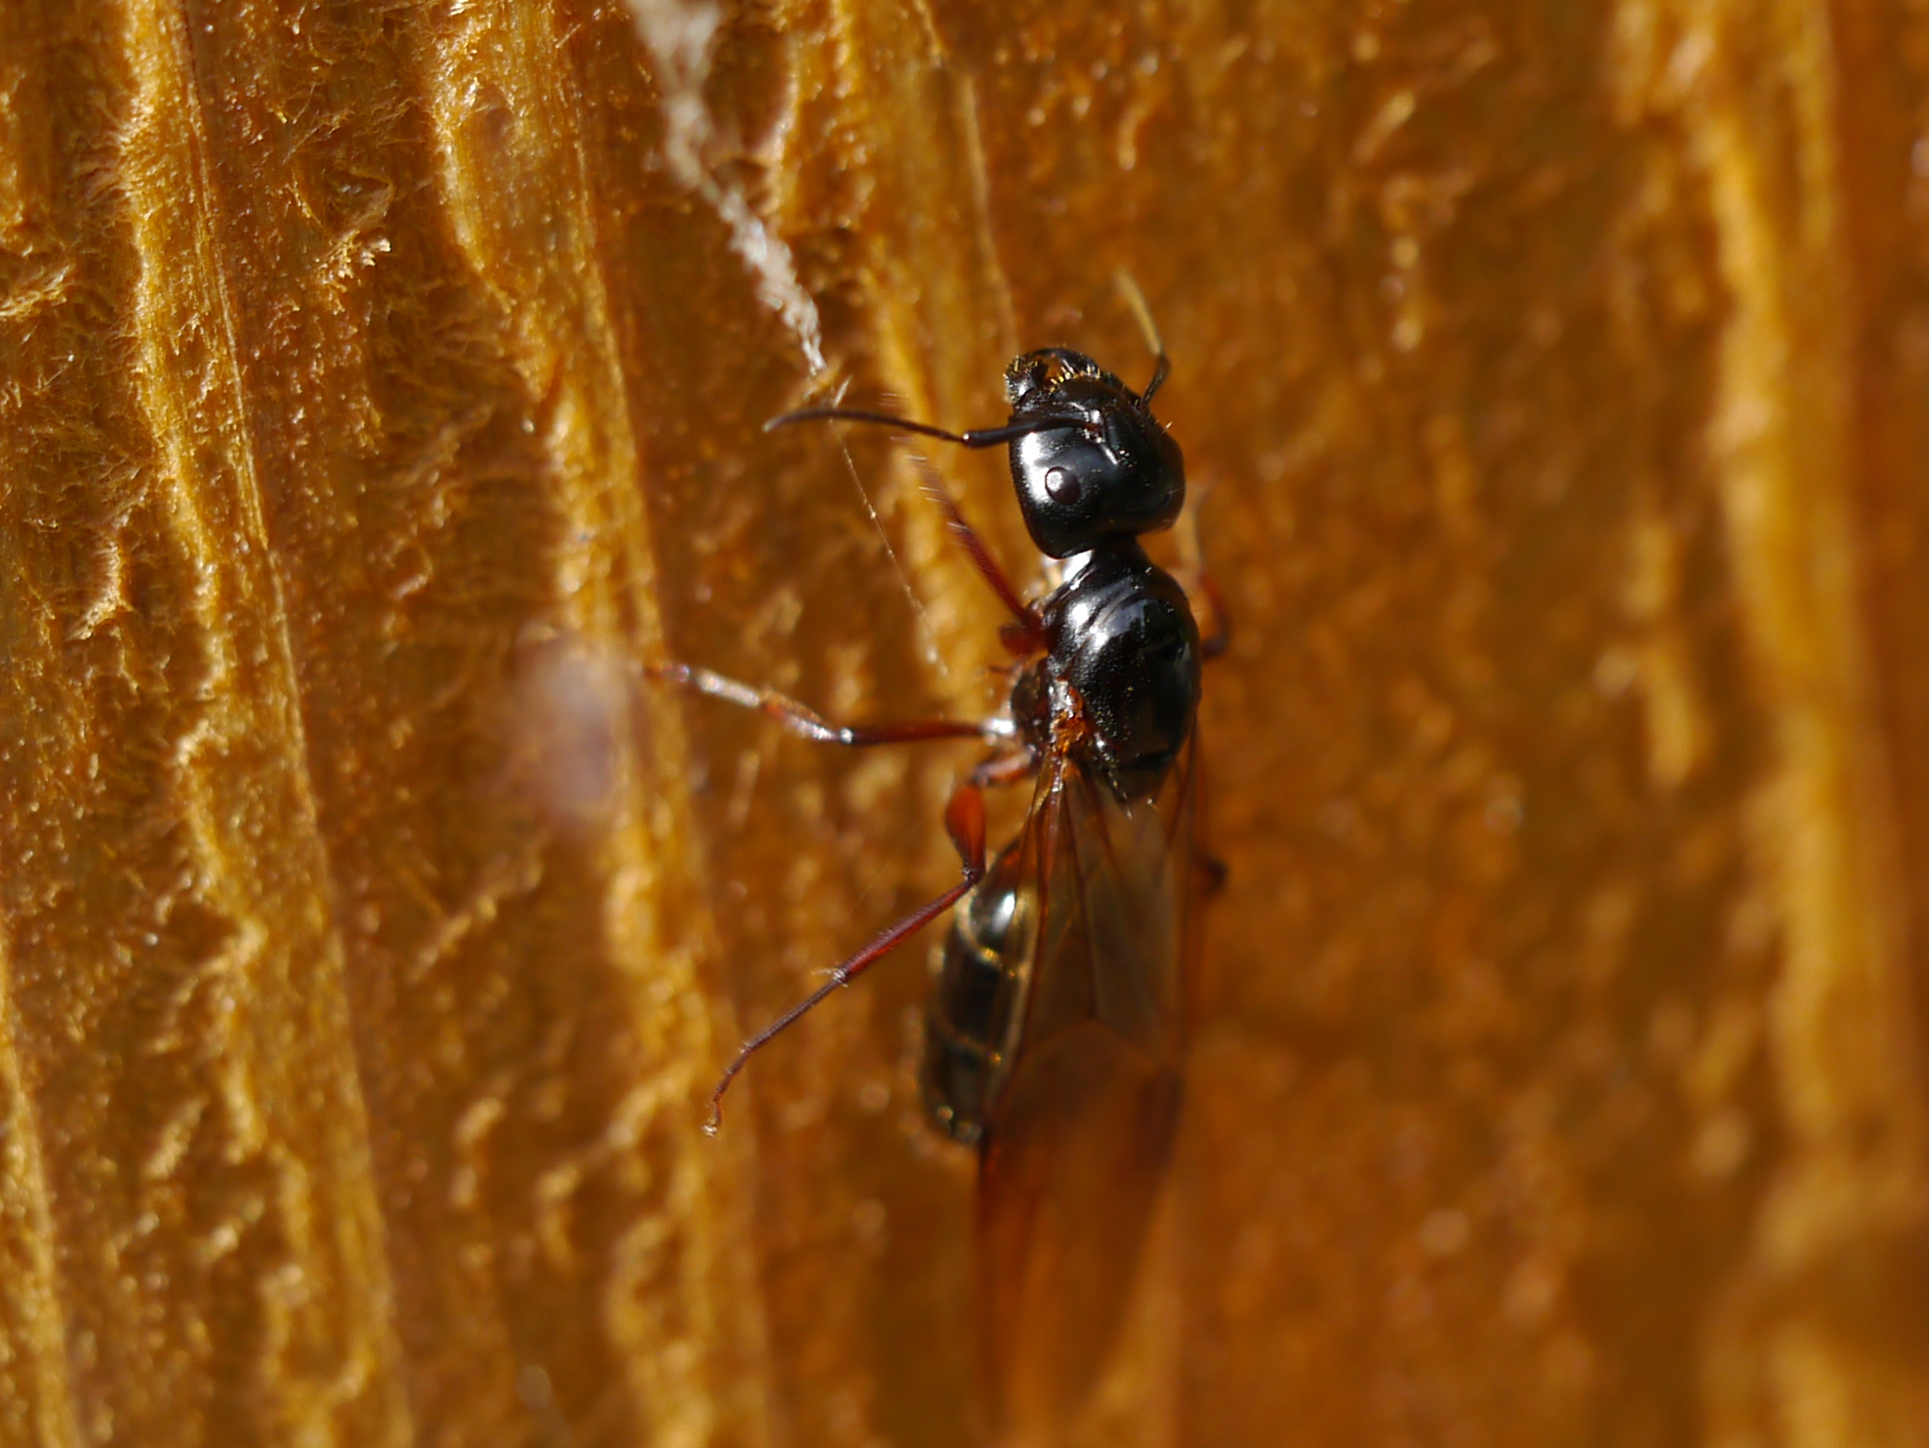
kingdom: Animalia
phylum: Arthropoda
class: Insecta
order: Hymenoptera
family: Formicidae
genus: Camponotus
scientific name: Camponotus herculeanus
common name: Hercules ant
